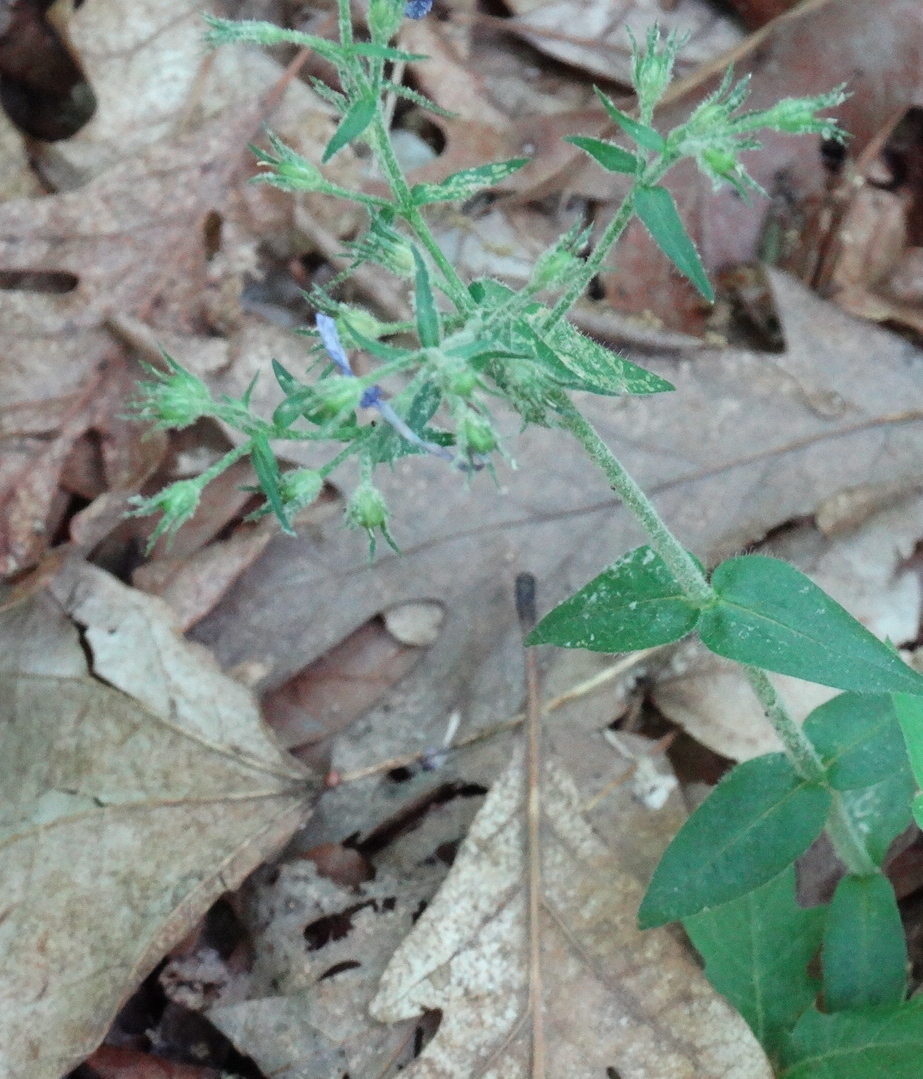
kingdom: Plantae
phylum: Tracheophyta
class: Magnoliopsida
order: Ericales
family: Polemoniaceae
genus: Phlox
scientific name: Phlox divaricata
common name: Blue phlox
